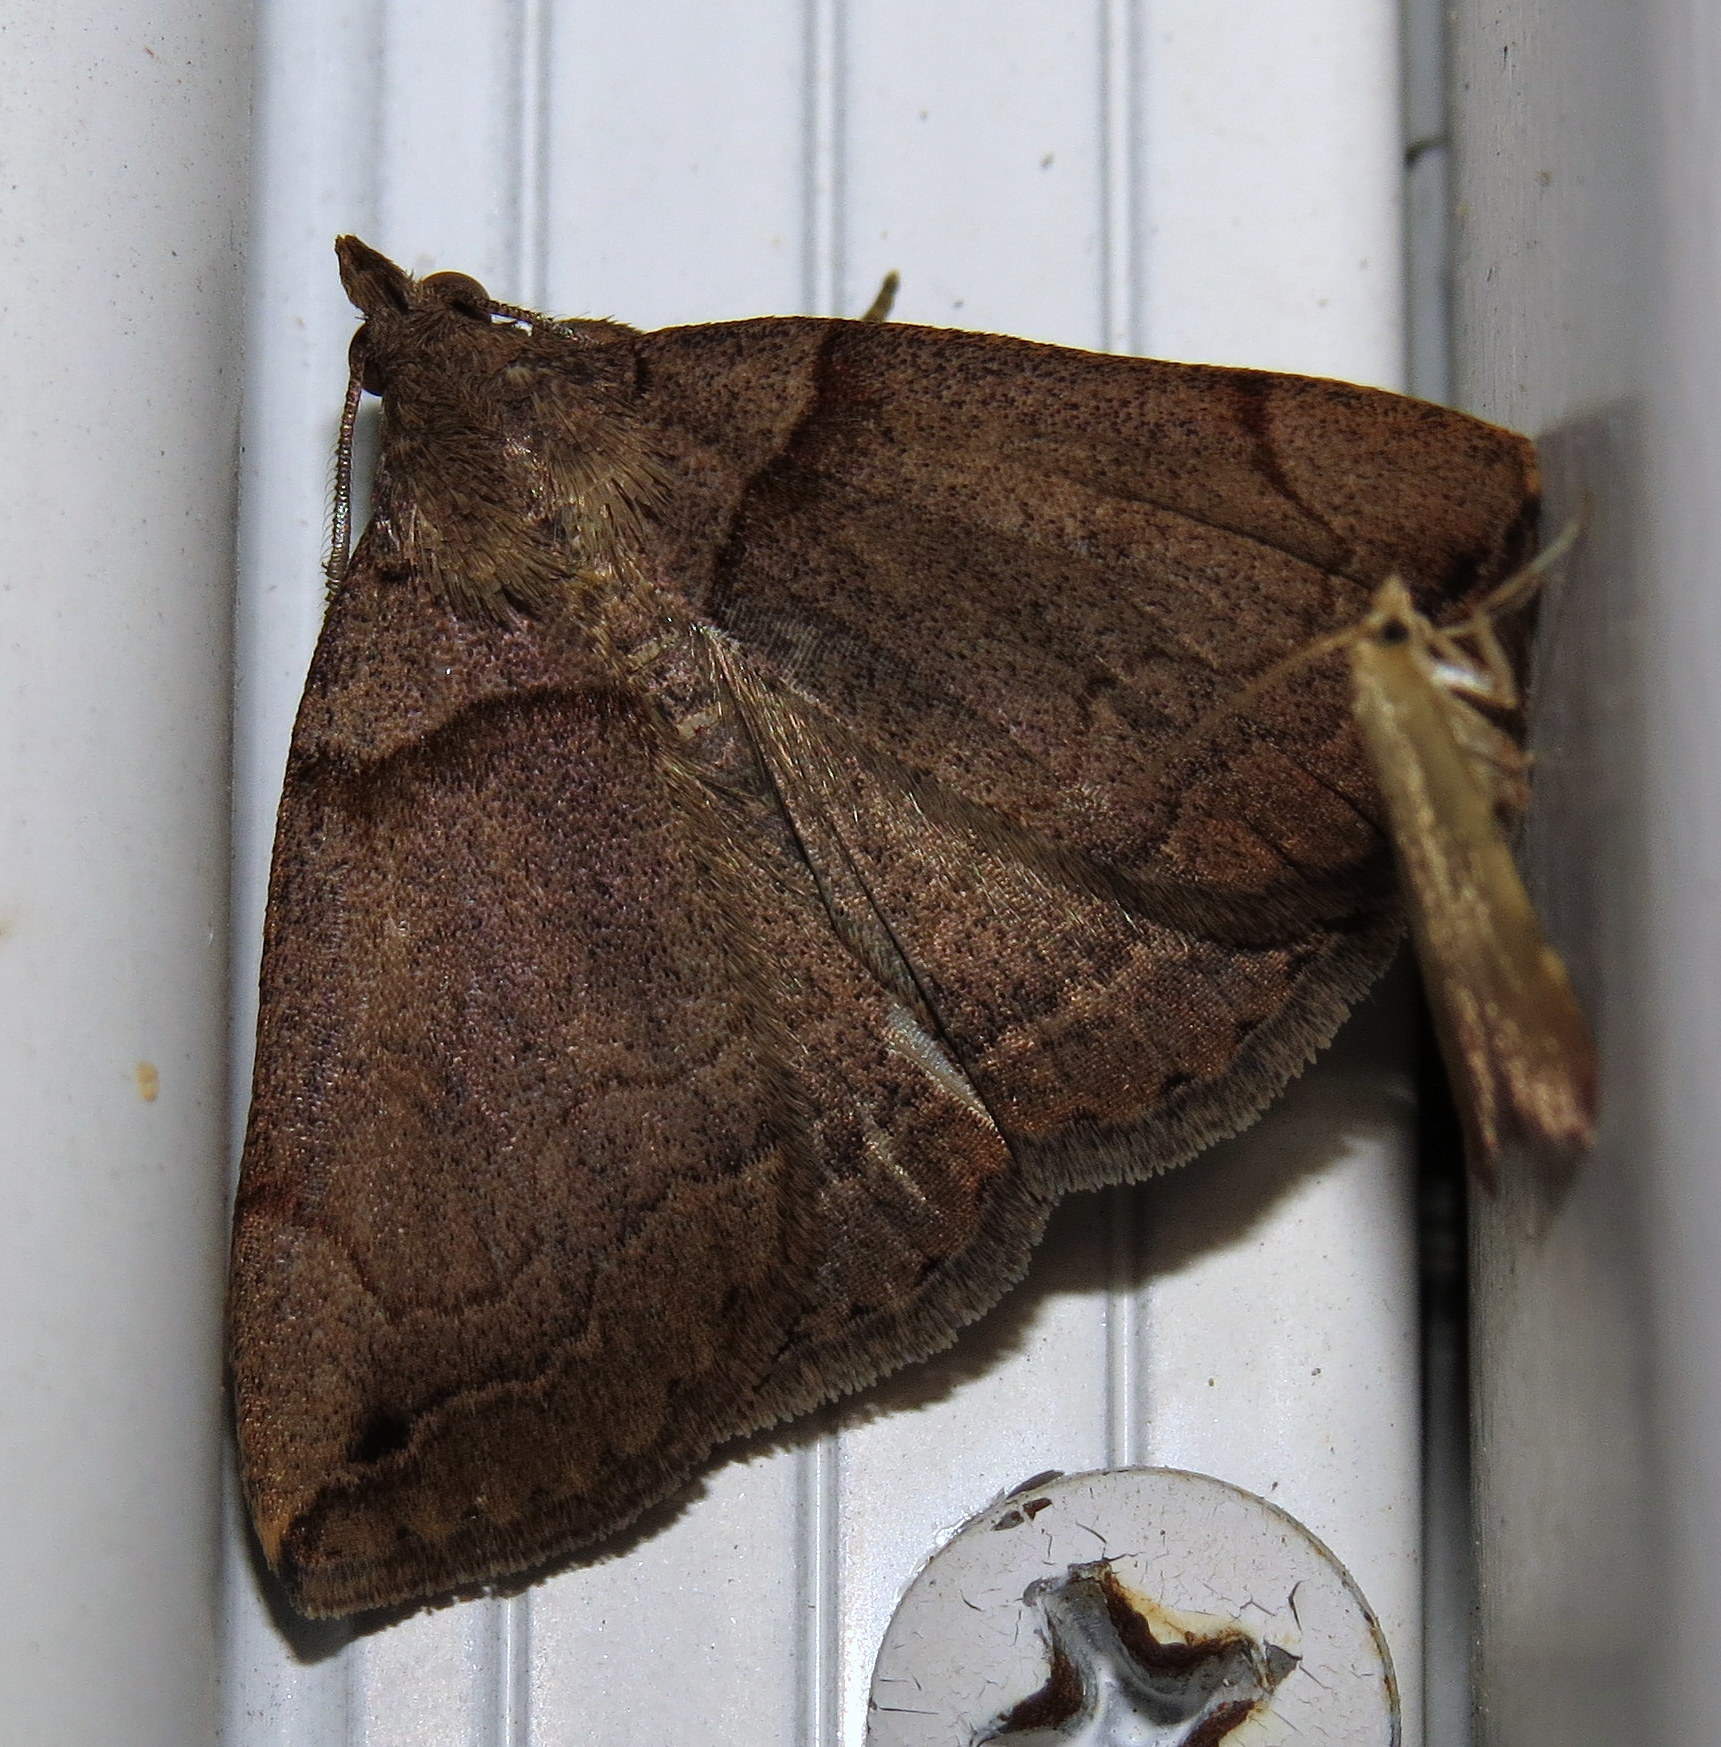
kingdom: Animalia
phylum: Arthropoda
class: Insecta
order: Lepidoptera
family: Erebidae
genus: Zanclognatha
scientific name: Zanclognatha laevigata
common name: Variable fan-foot
